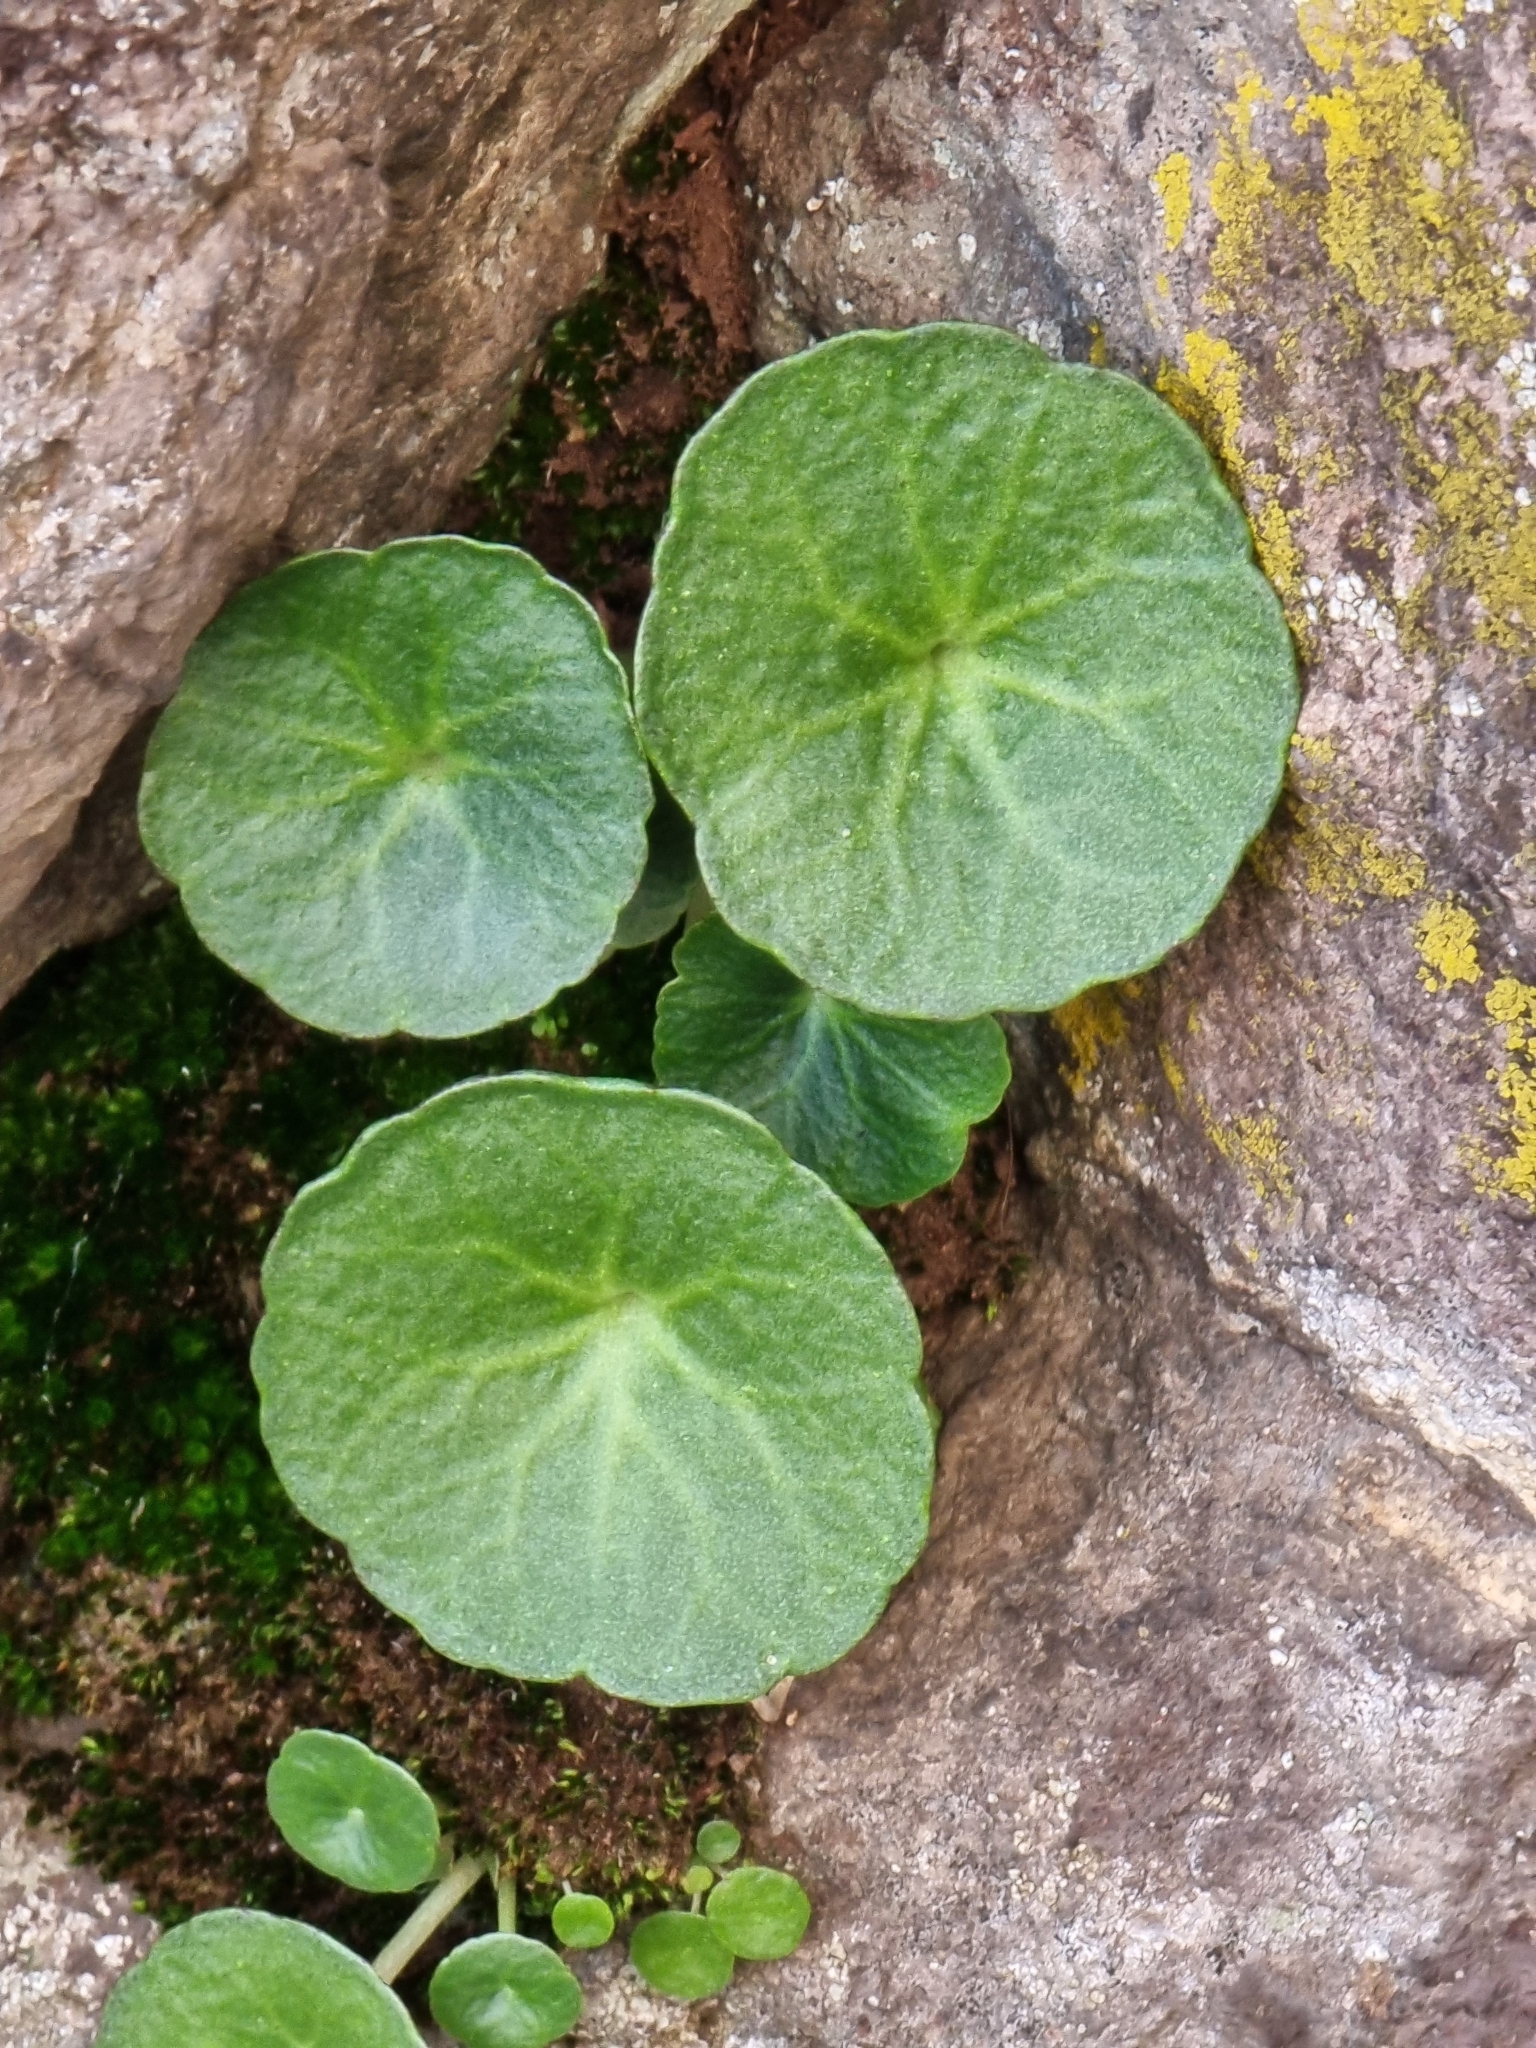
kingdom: Plantae
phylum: Tracheophyta
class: Magnoliopsida
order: Saxifragales
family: Crassulaceae
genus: Umbilicus
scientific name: Umbilicus rupestris
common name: Navelwort
